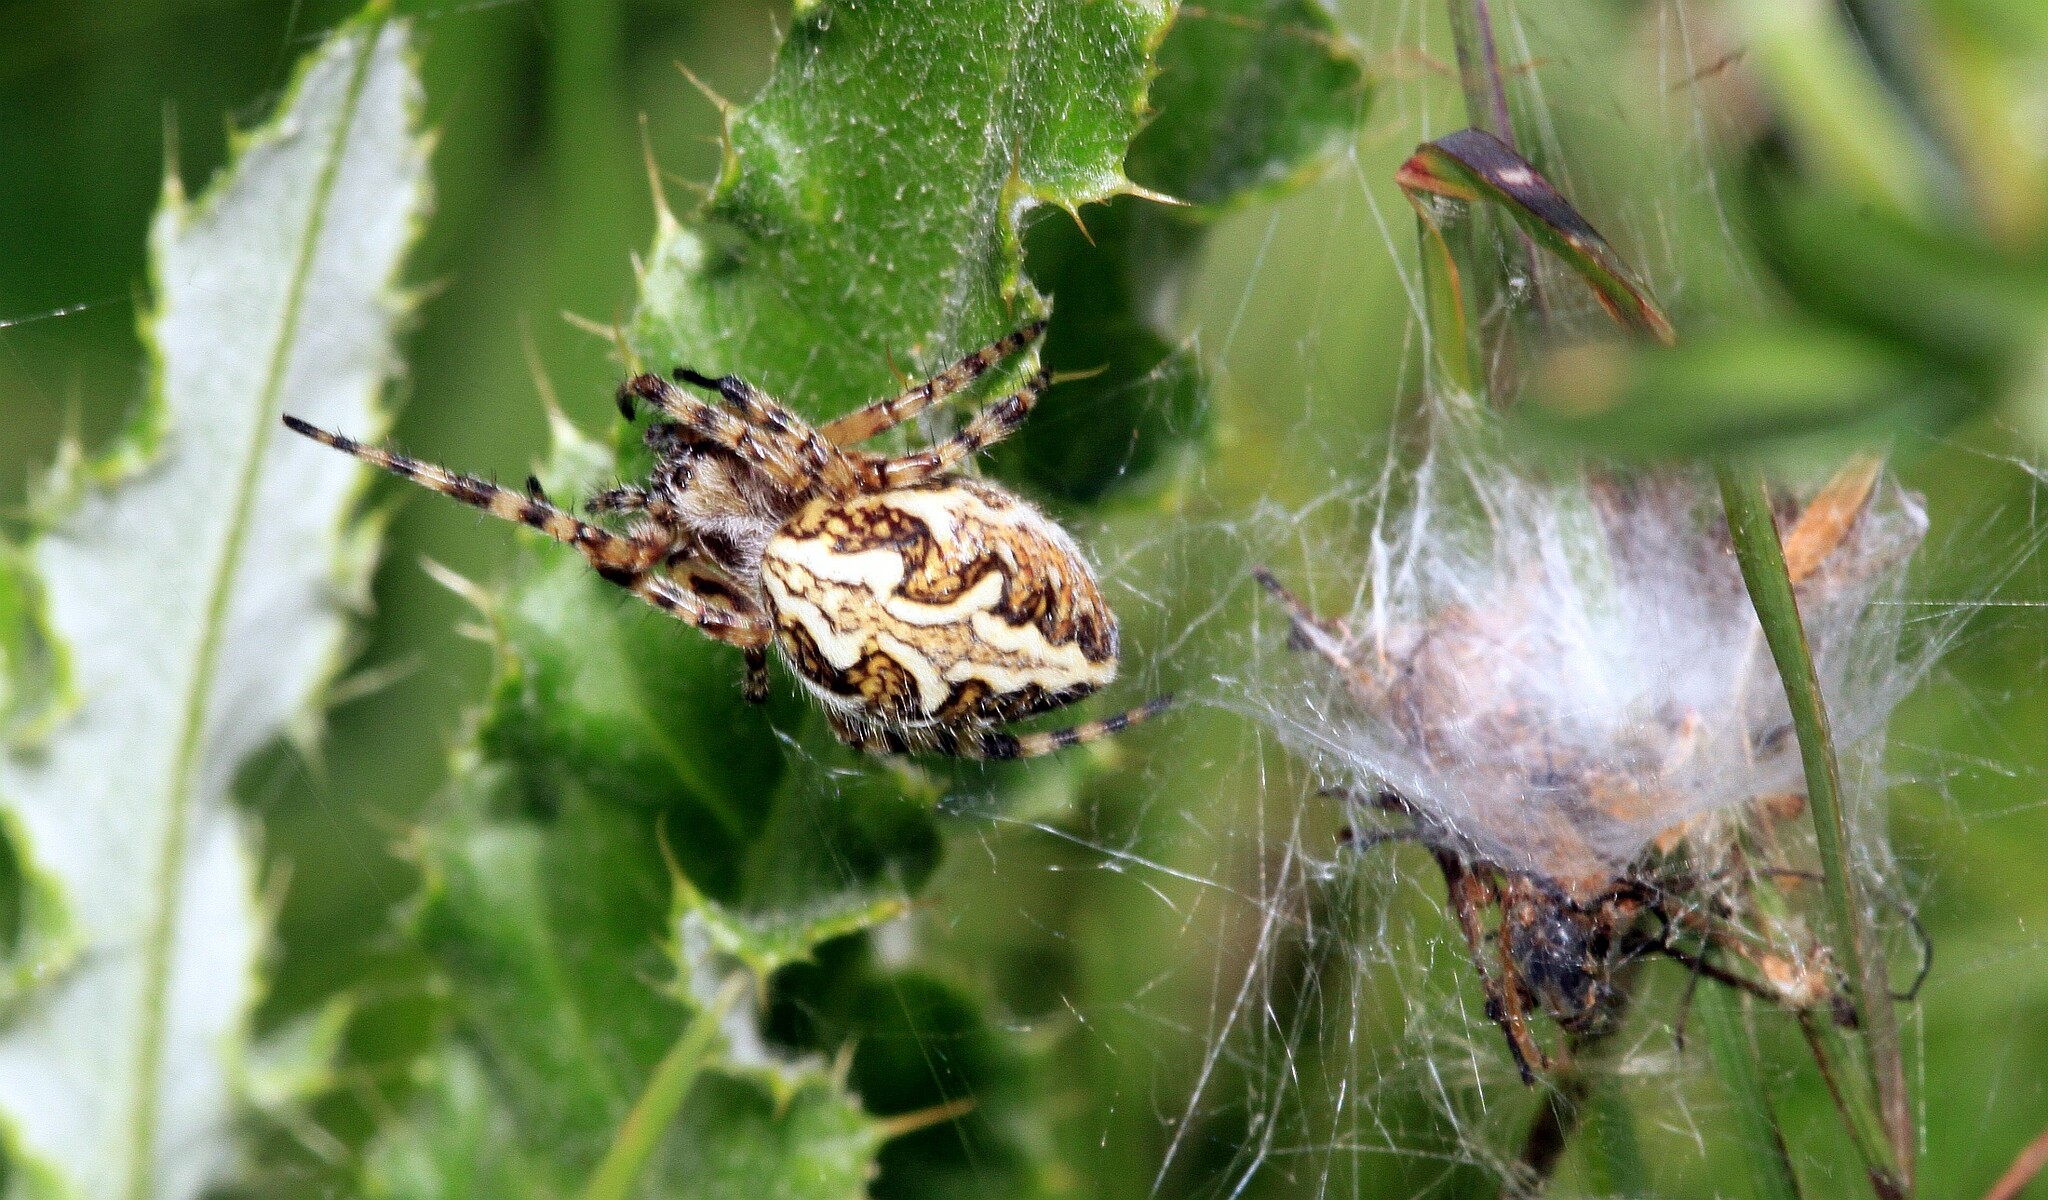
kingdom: Animalia
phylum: Arthropoda
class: Arachnida
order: Araneae
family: Araneidae
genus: Aculepeira
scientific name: Aculepeira ceropegia
